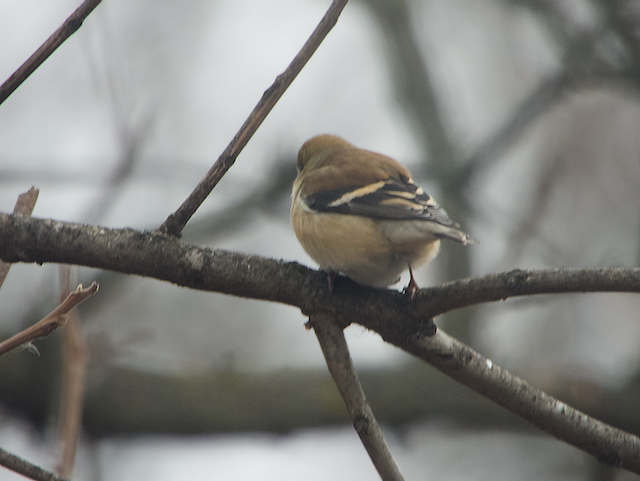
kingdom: Animalia
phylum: Chordata
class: Aves
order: Passeriformes
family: Fringillidae
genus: Spinus
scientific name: Spinus tristis
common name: American goldfinch
